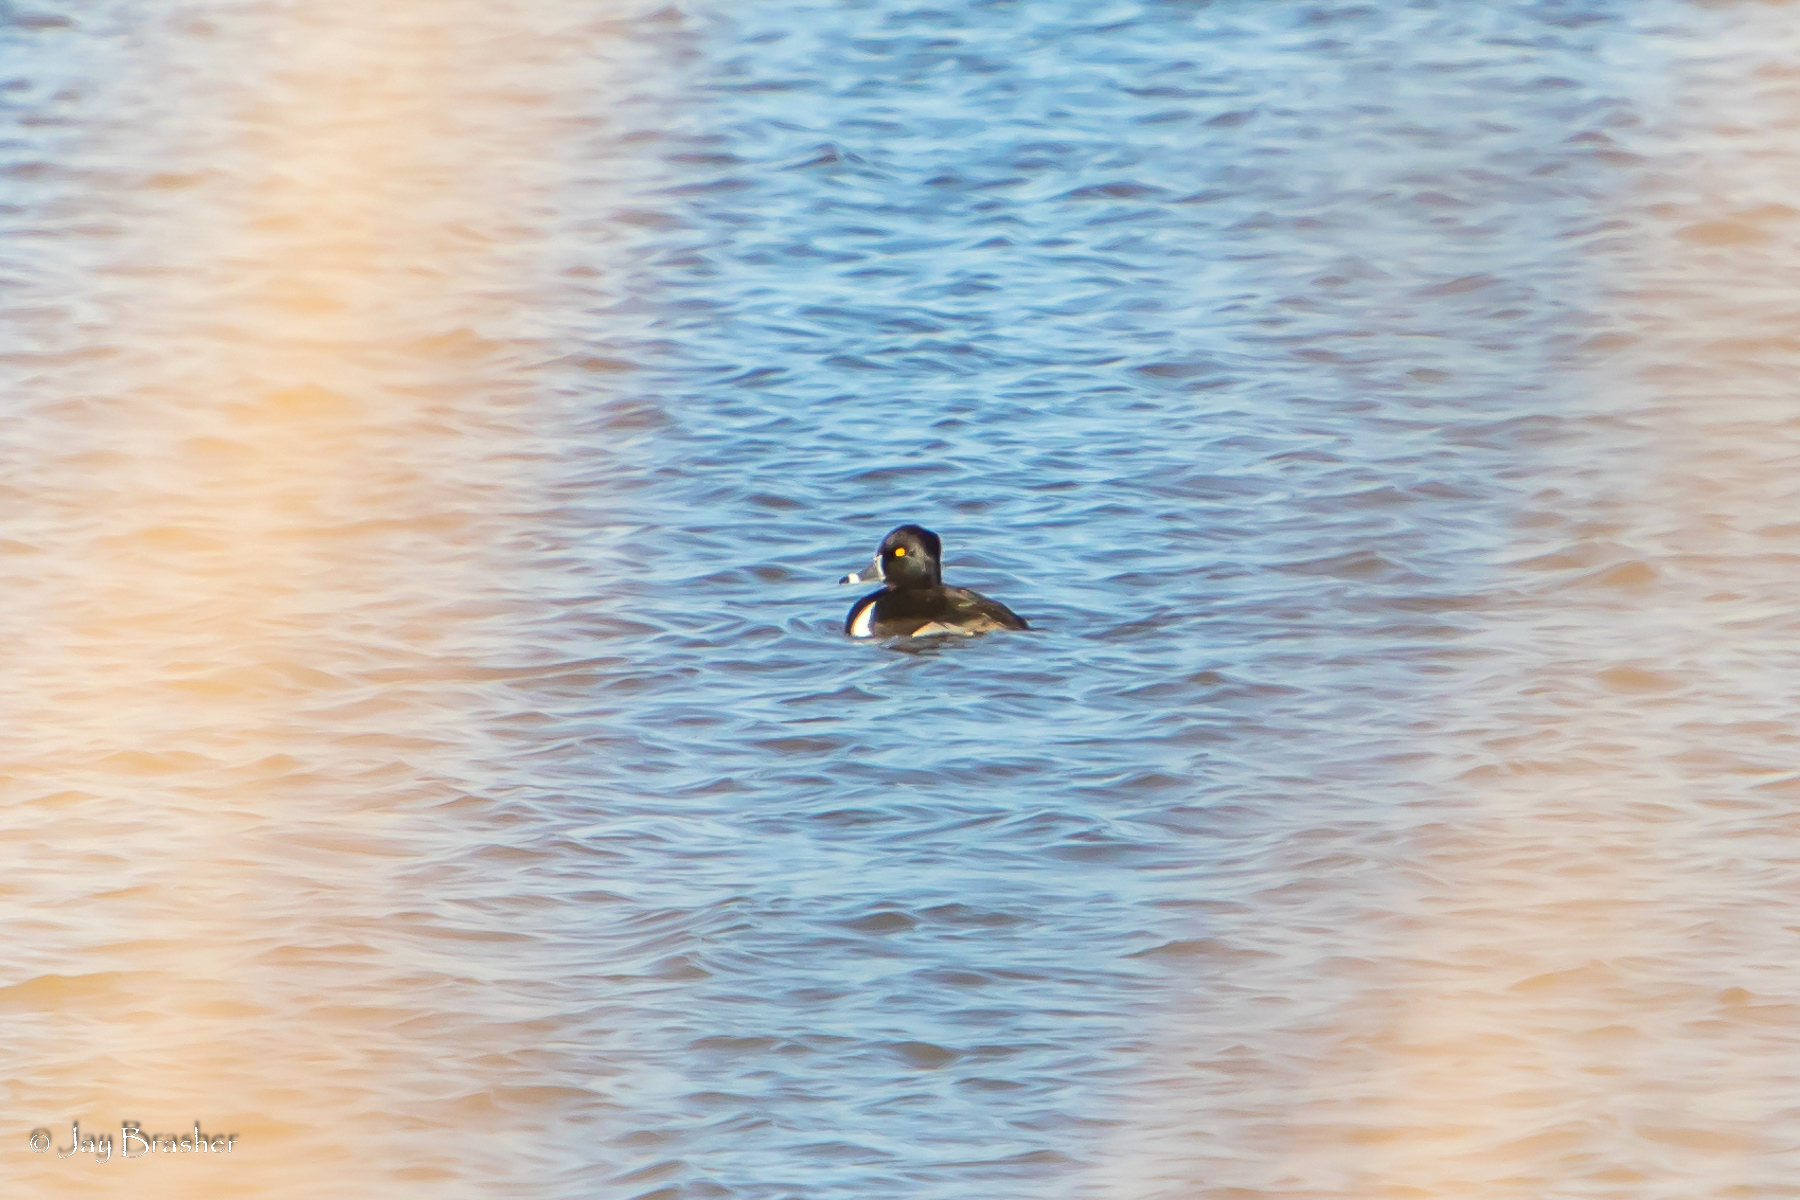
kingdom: Animalia
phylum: Chordata
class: Aves
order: Anseriformes
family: Anatidae
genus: Aythya
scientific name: Aythya collaris
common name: Ring-necked duck
